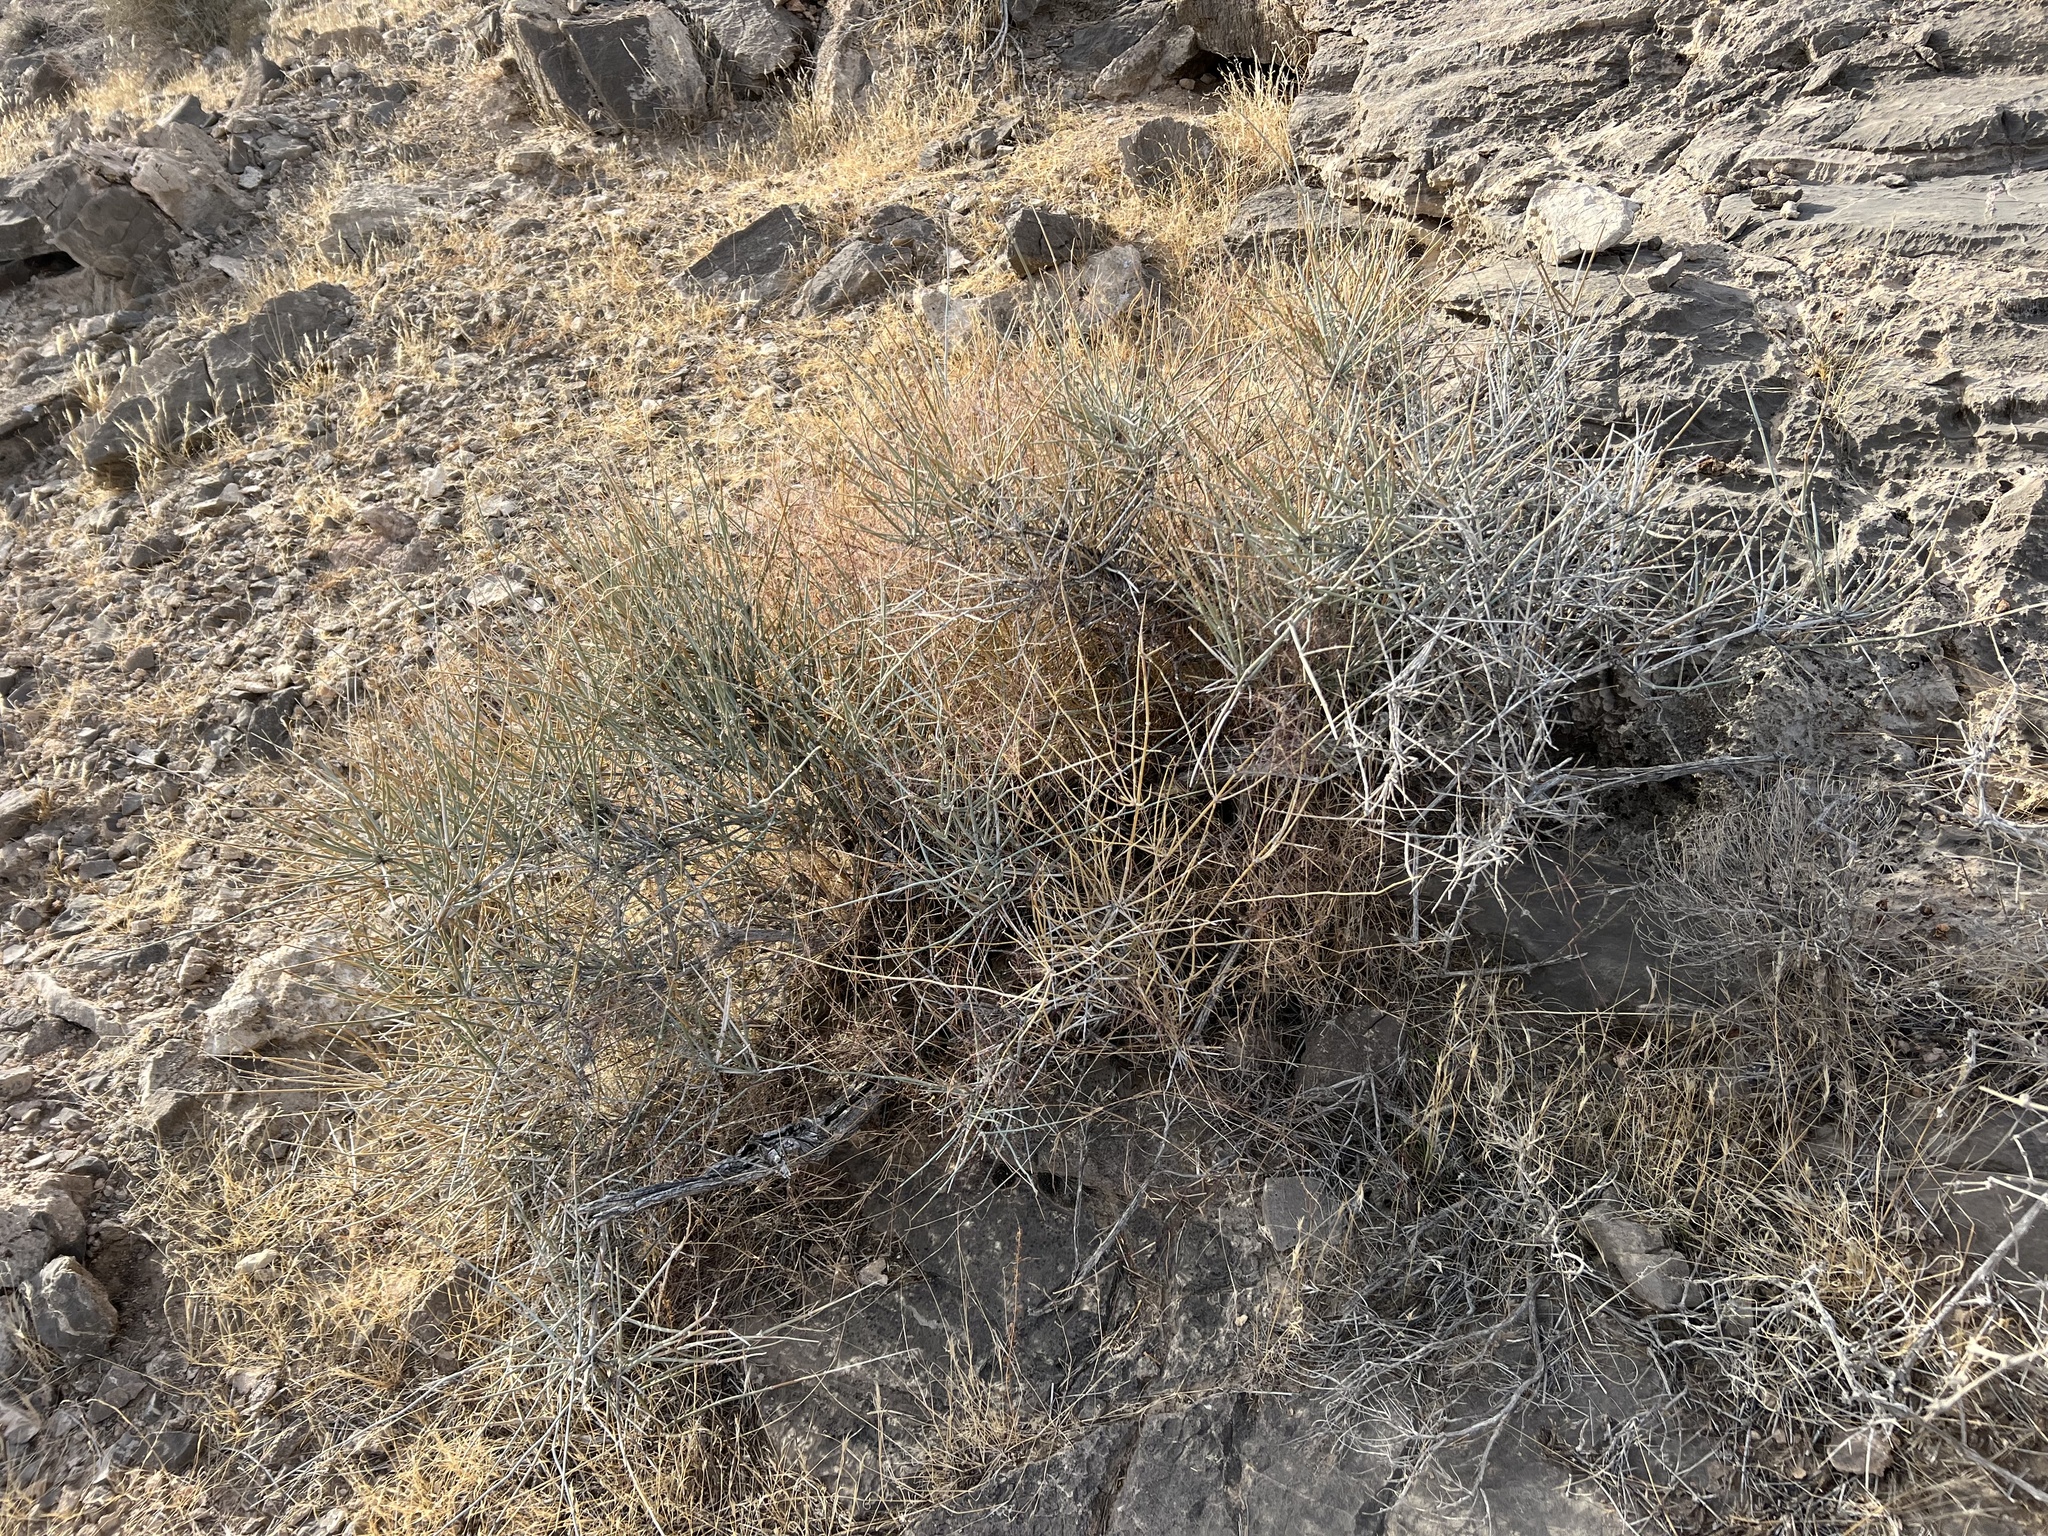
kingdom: Plantae
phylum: Tracheophyta
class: Gnetopsida
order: Ephedrales
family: Ephedraceae
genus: Ephedra
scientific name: Ephedra nevadensis
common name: Gray ephedra
